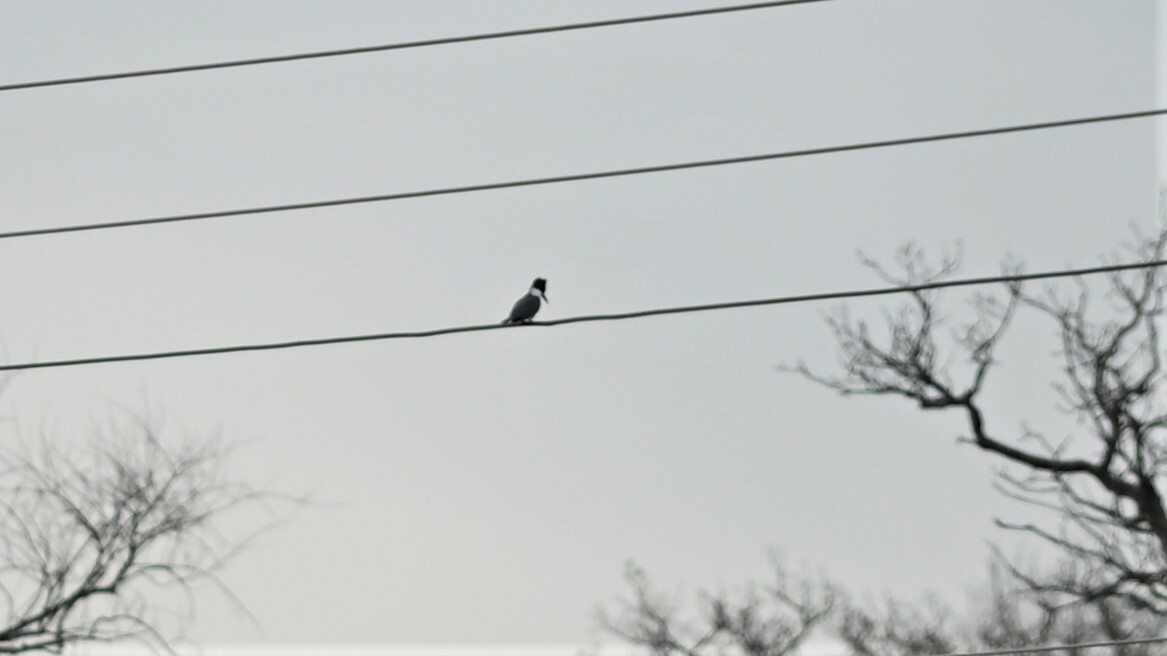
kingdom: Animalia
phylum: Chordata
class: Aves
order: Coraciiformes
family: Alcedinidae
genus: Megaceryle
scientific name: Megaceryle alcyon
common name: Belted kingfisher
